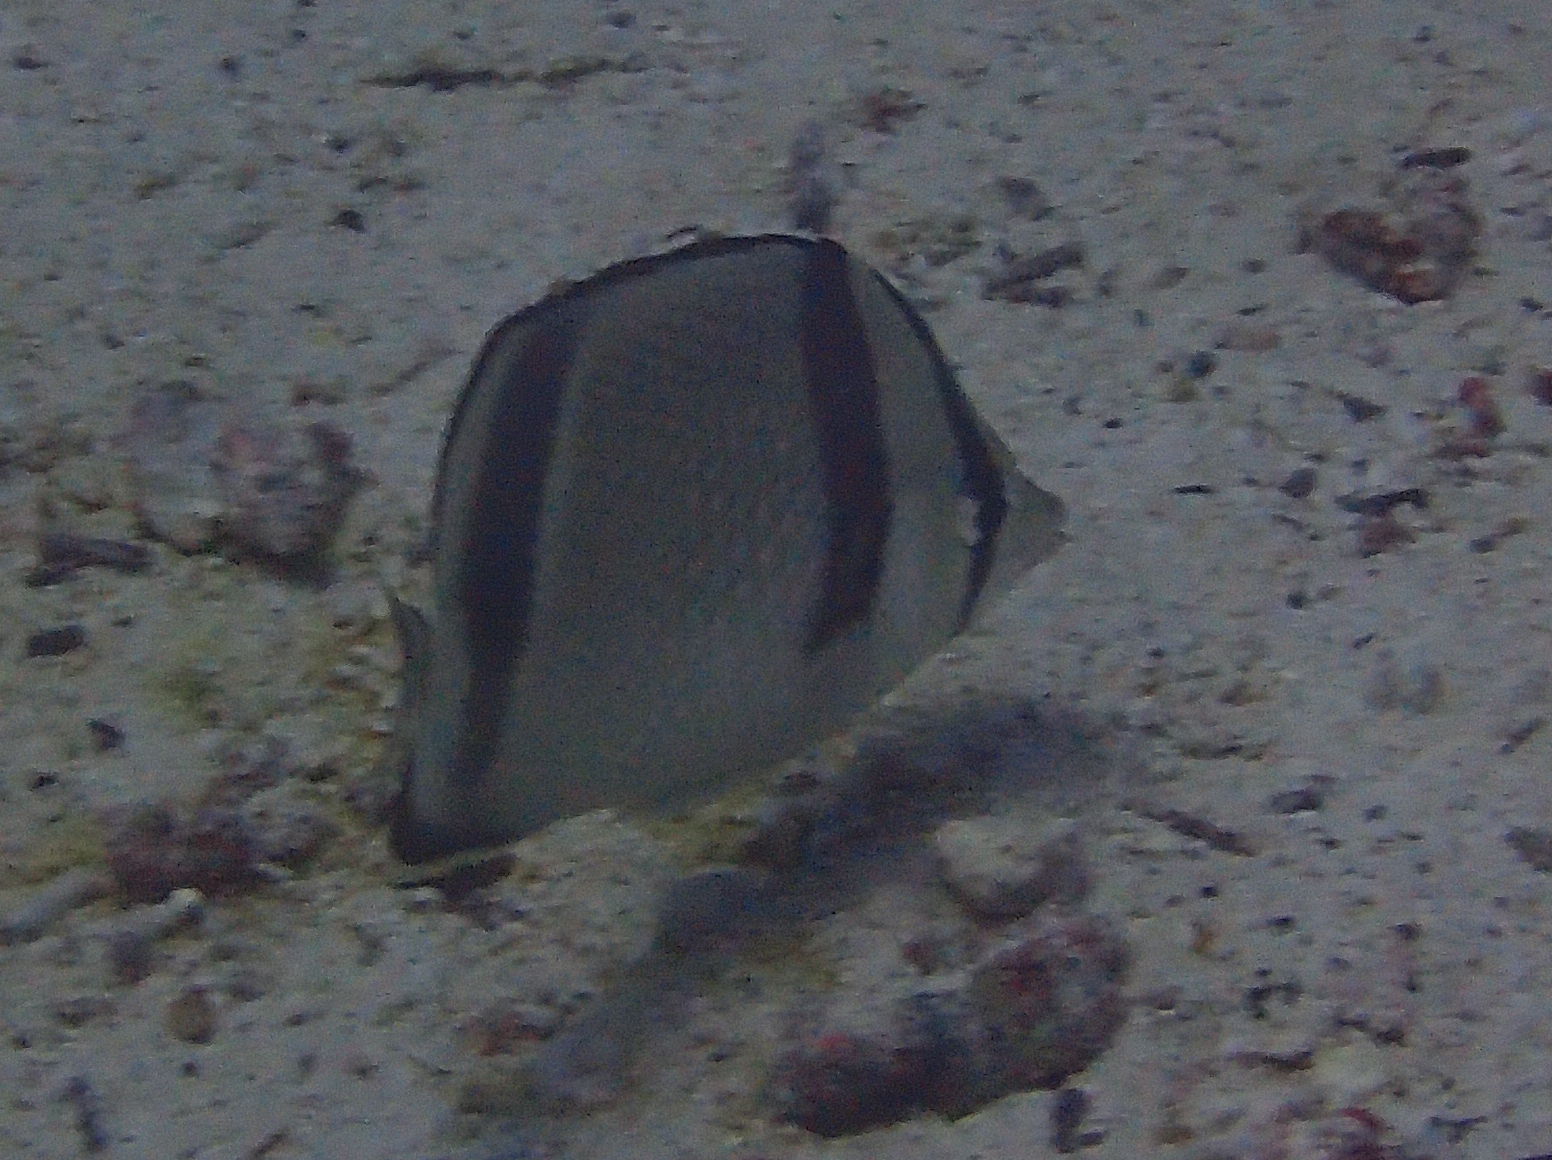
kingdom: Animalia
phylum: Chordata
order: Perciformes
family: Chaetodontidae
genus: Chaetodon
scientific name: Chaetodon humeralis
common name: Threebanded butterflyfish
